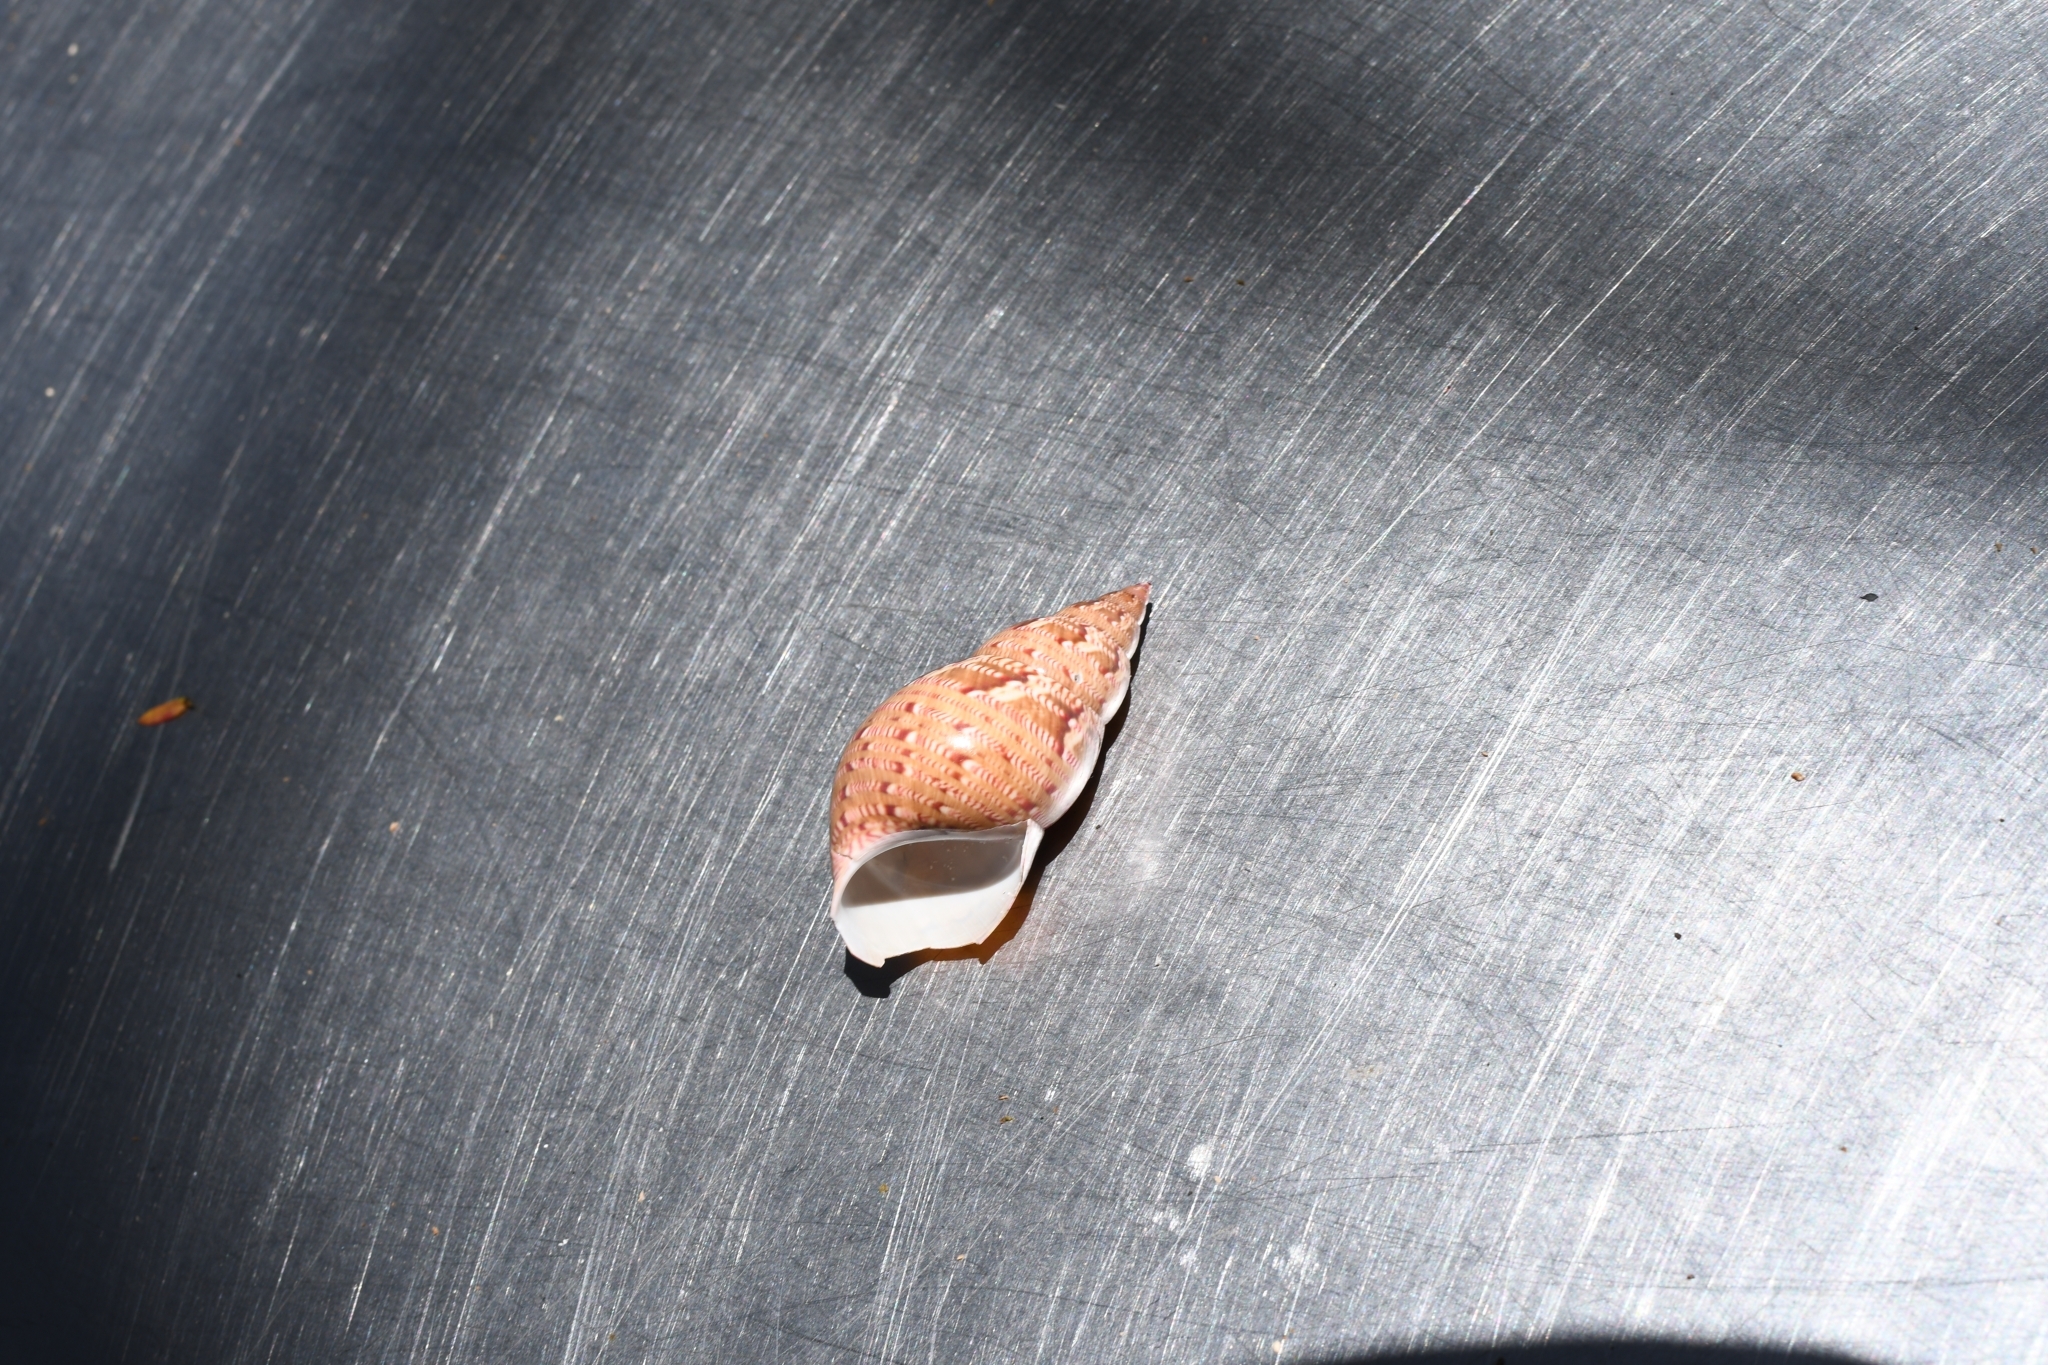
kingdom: Animalia
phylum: Mollusca
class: Gastropoda
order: Trochida
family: Phasianellidae
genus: Phasianella
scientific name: Phasianella australis
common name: Painted lady
